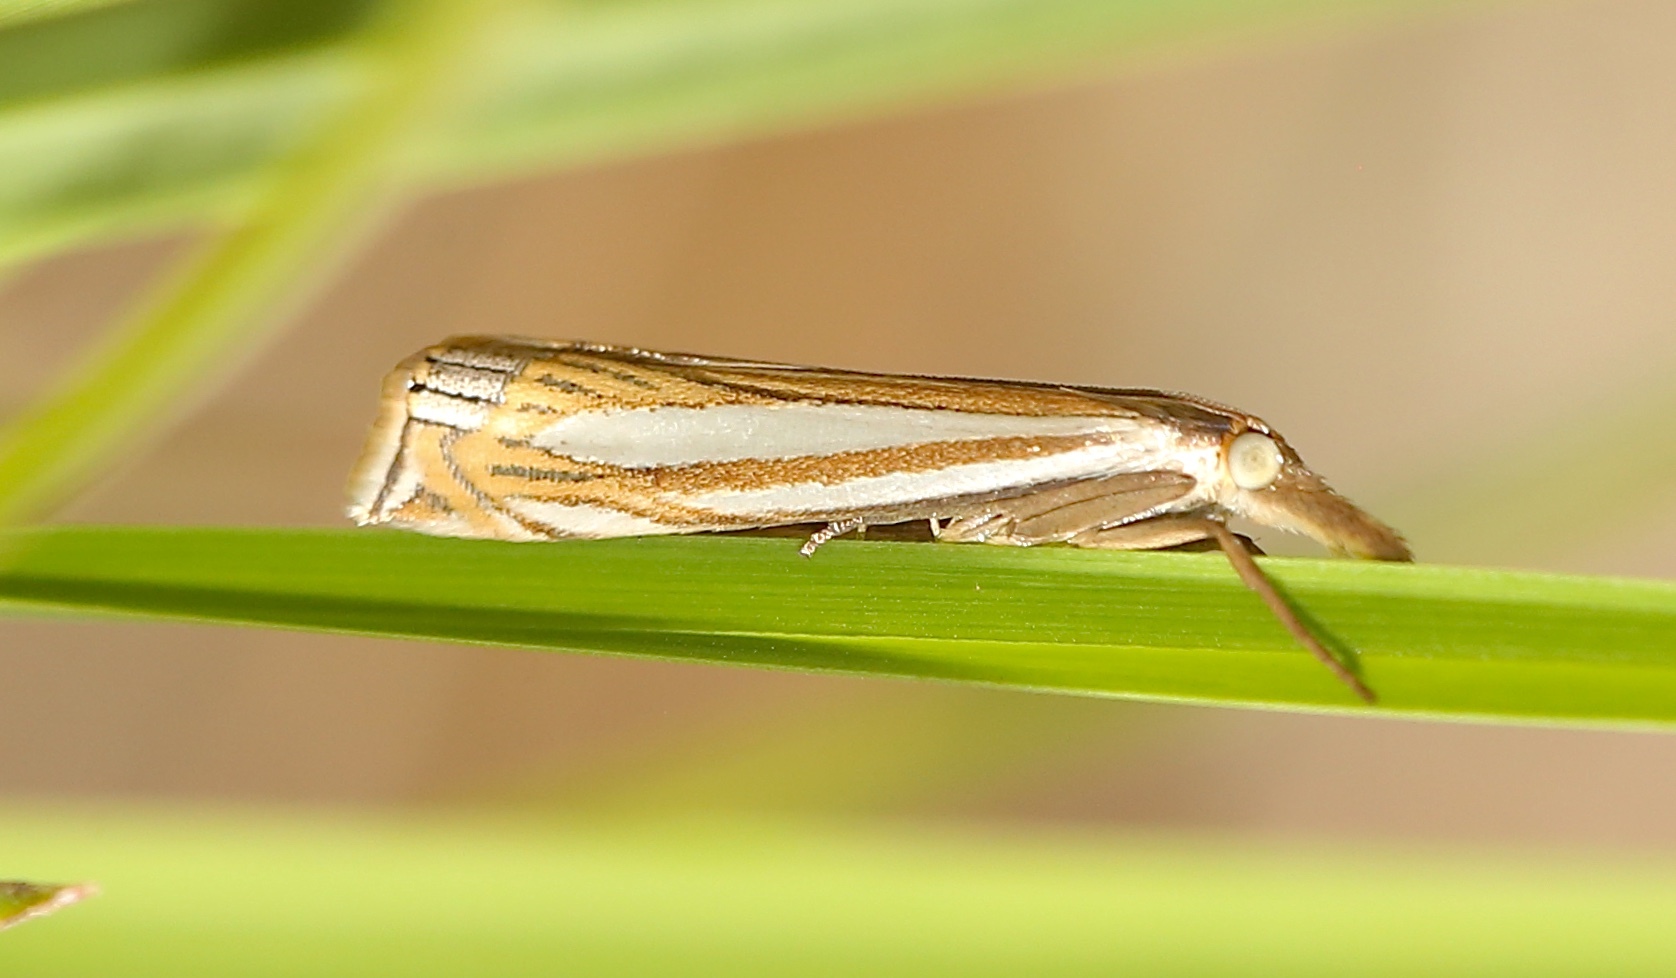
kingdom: Animalia
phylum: Arthropoda
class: Insecta
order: Lepidoptera
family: Crambidae
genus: Crambus
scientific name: Crambus laqueatellus
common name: Eastern grass-veneer
